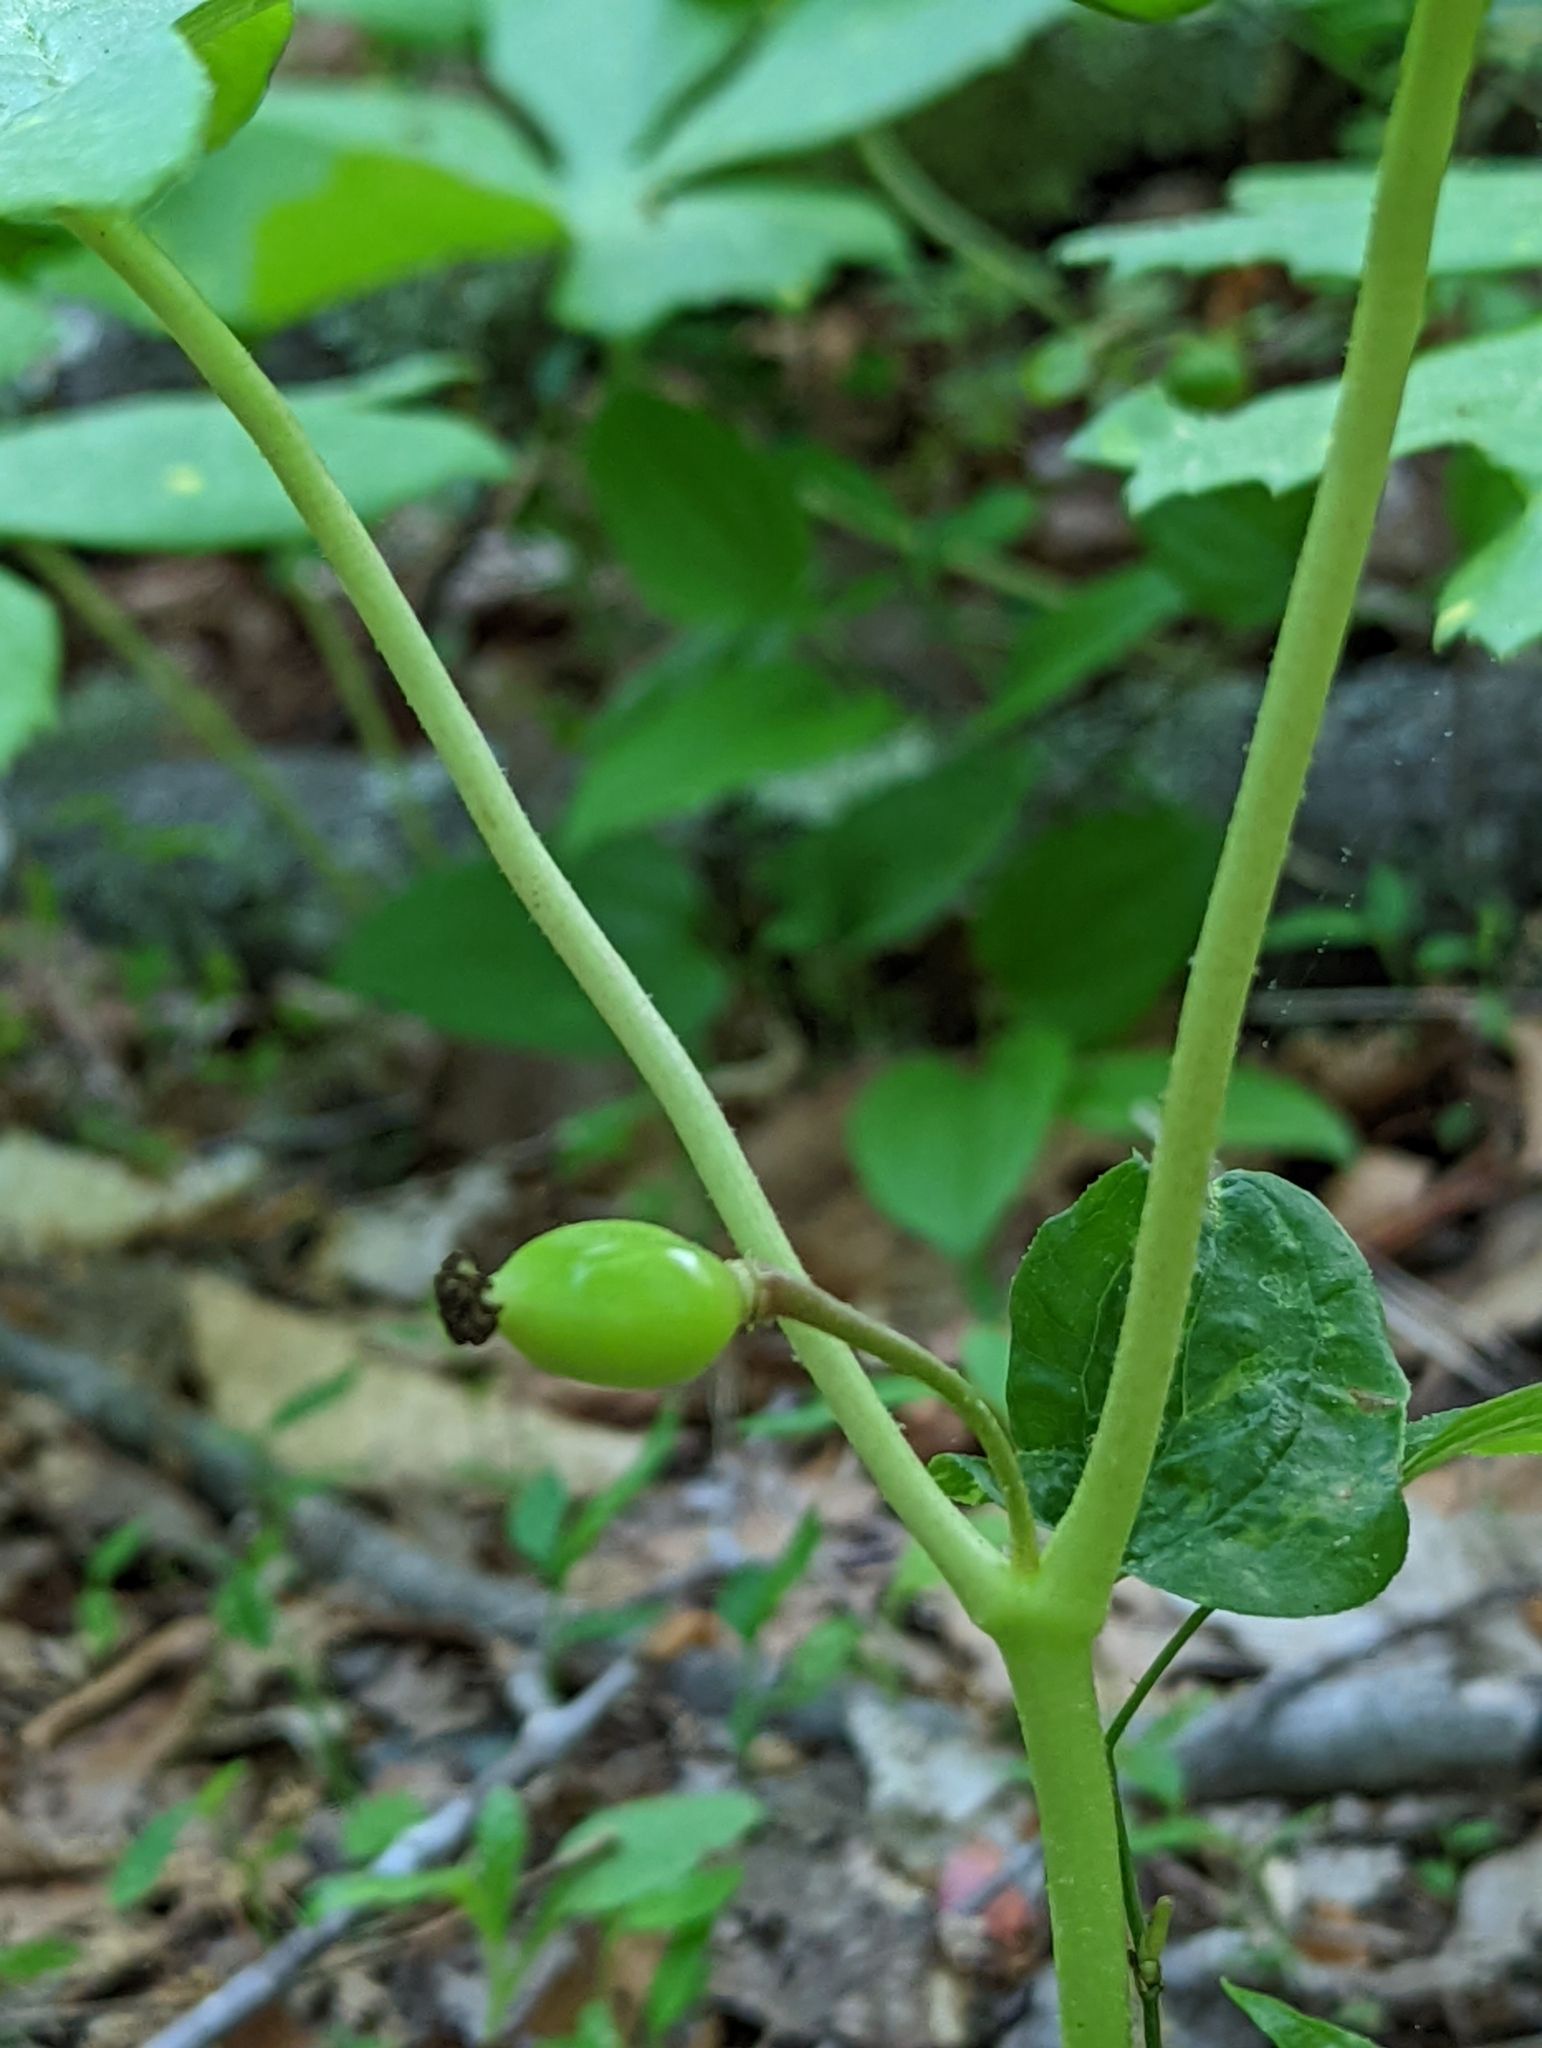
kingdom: Plantae
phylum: Tracheophyta
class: Magnoliopsida
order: Ranunculales
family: Berberidaceae
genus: Podophyllum
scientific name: Podophyllum peltatum
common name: Wild mandrake
